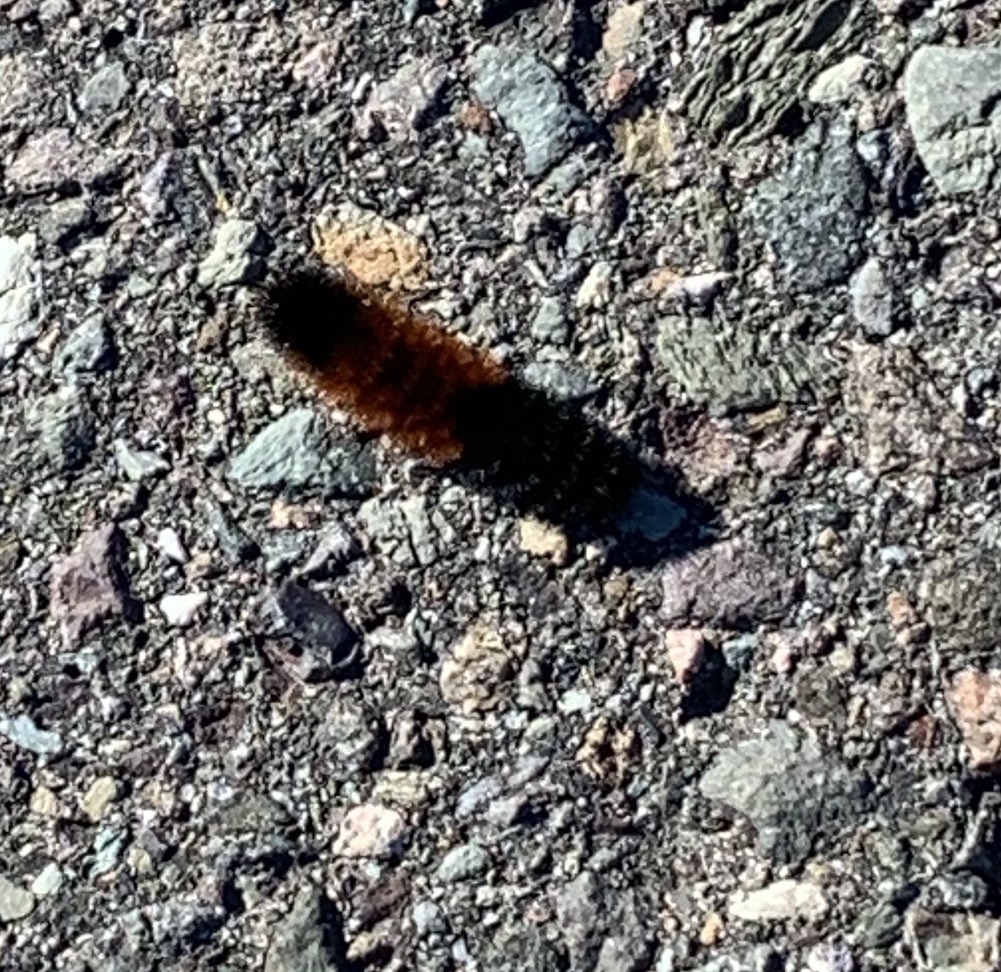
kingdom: Animalia
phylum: Arthropoda
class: Insecta
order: Lepidoptera
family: Erebidae
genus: Pyrrharctia
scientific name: Pyrrharctia isabella
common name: Isabella tiger moth
